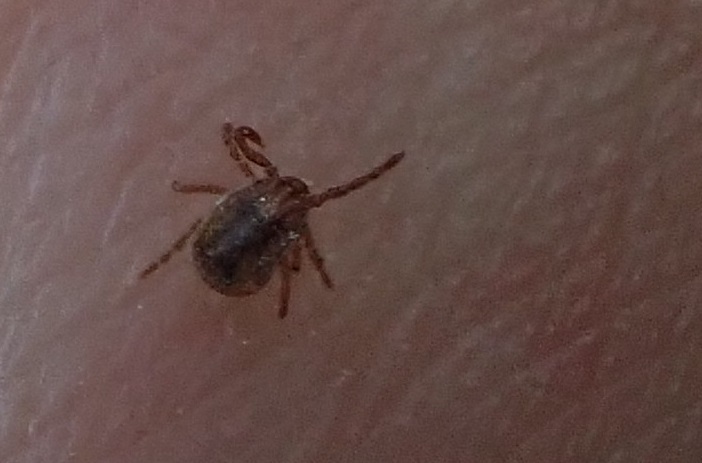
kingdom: Animalia
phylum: Arthropoda
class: Arachnida
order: Ixodida
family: Ixodidae
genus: Haemaphysalis
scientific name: Haemaphysalis longicornis
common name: Bush tick
